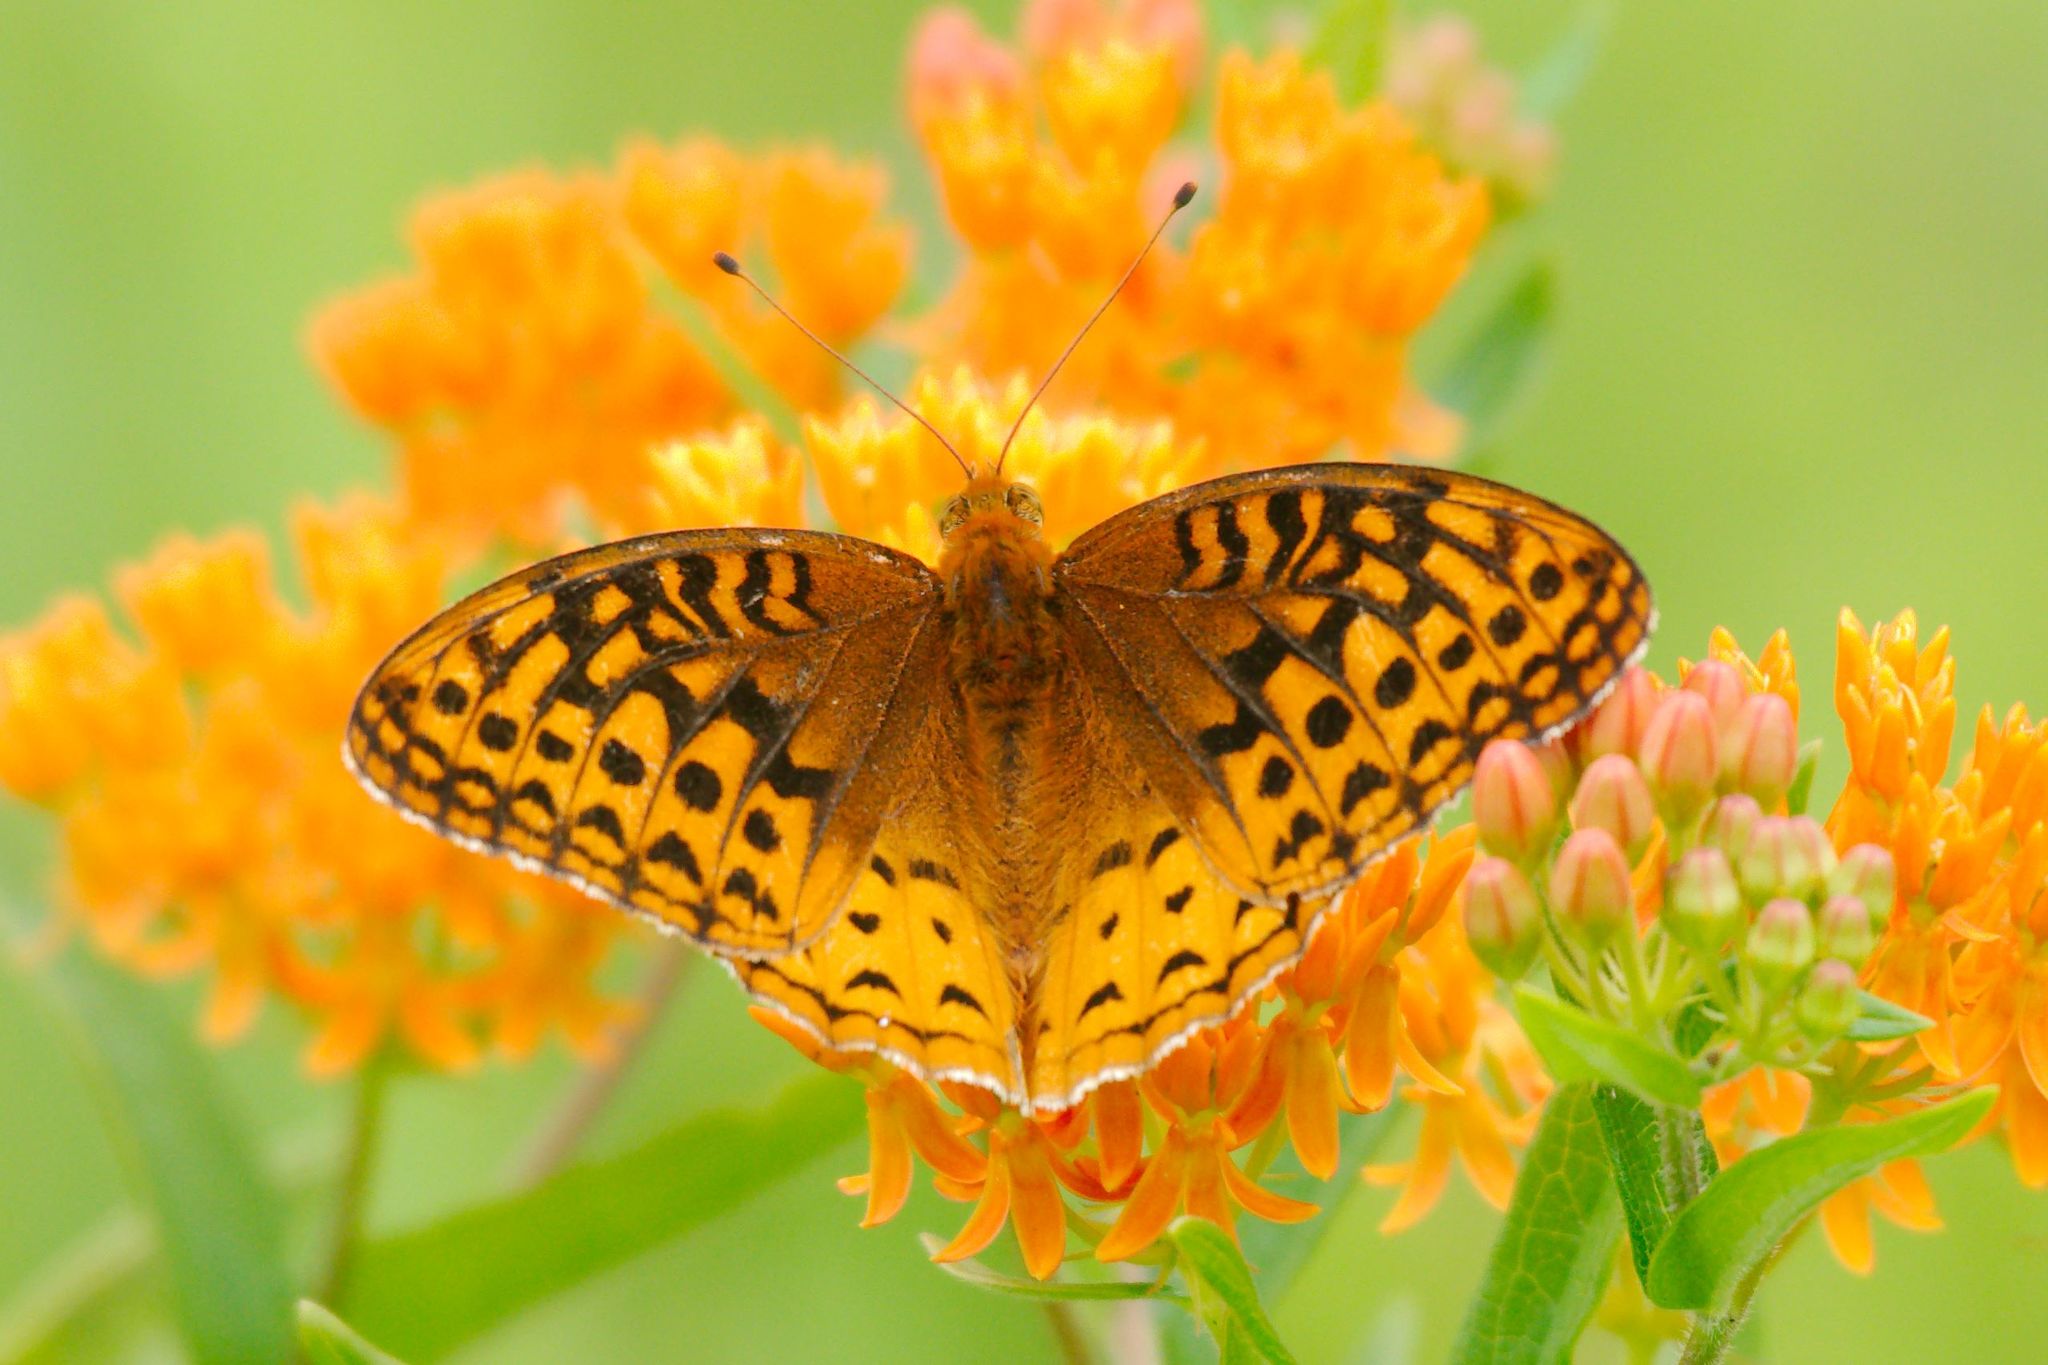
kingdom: Animalia
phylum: Arthropoda
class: Insecta
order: Lepidoptera
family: Nymphalidae
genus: Speyeria
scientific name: Speyeria cybele
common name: Great spangled fritillary
